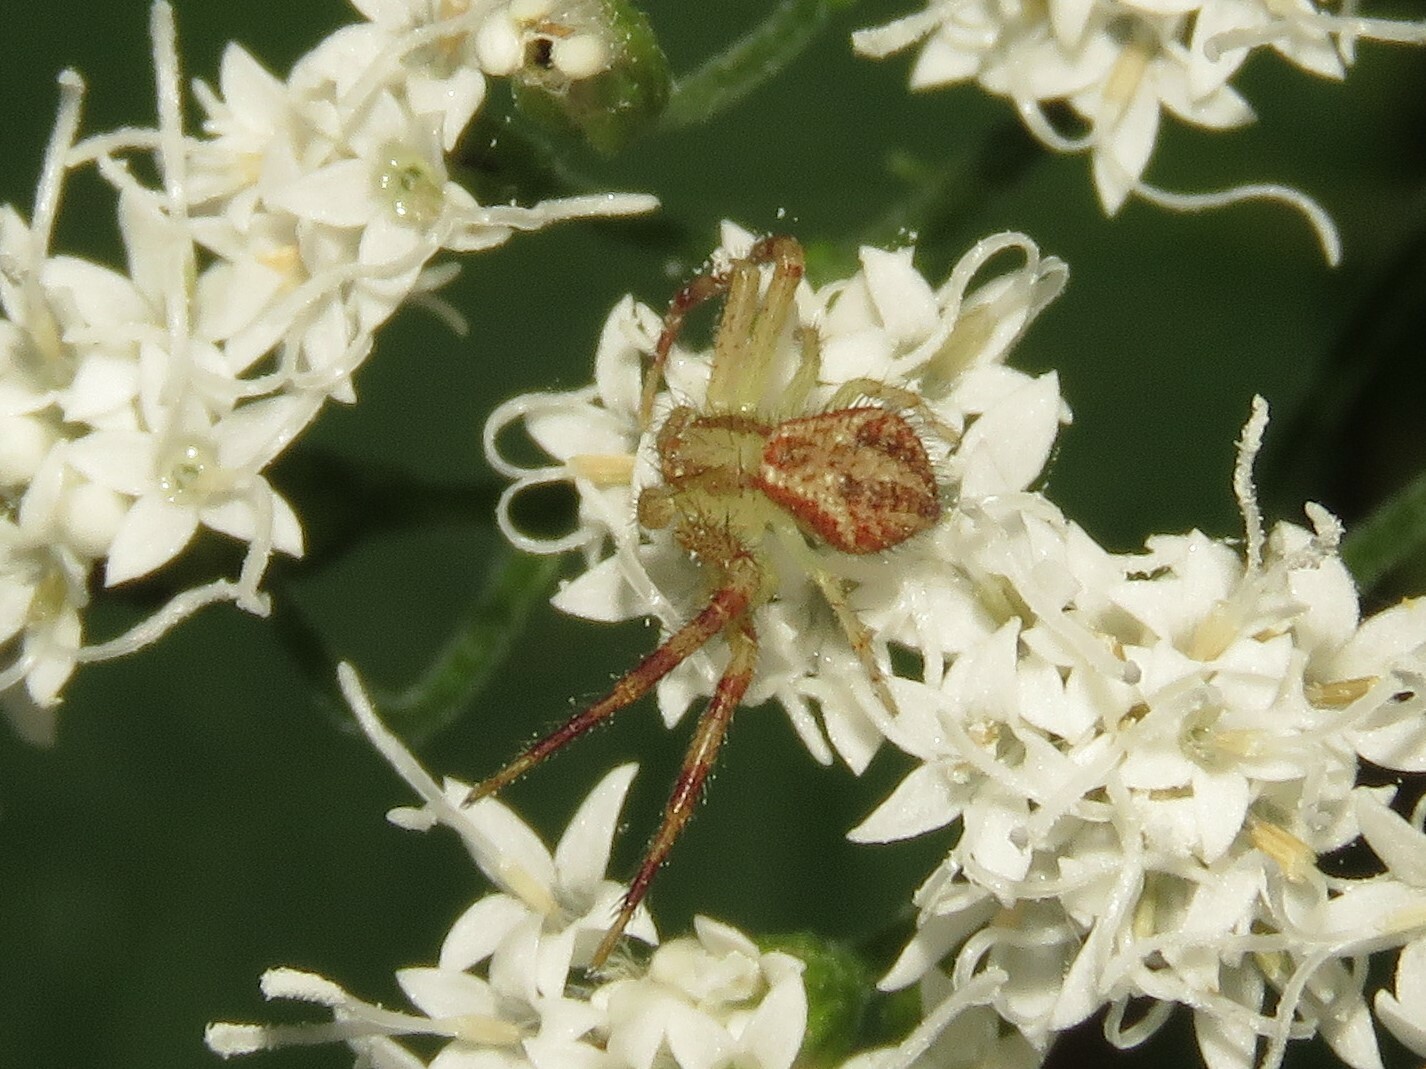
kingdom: Animalia
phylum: Arthropoda
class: Arachnida
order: Araneae
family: Thomisidae
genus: Mecaphesa
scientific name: Mecaphesa asperata
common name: Crab spiders
